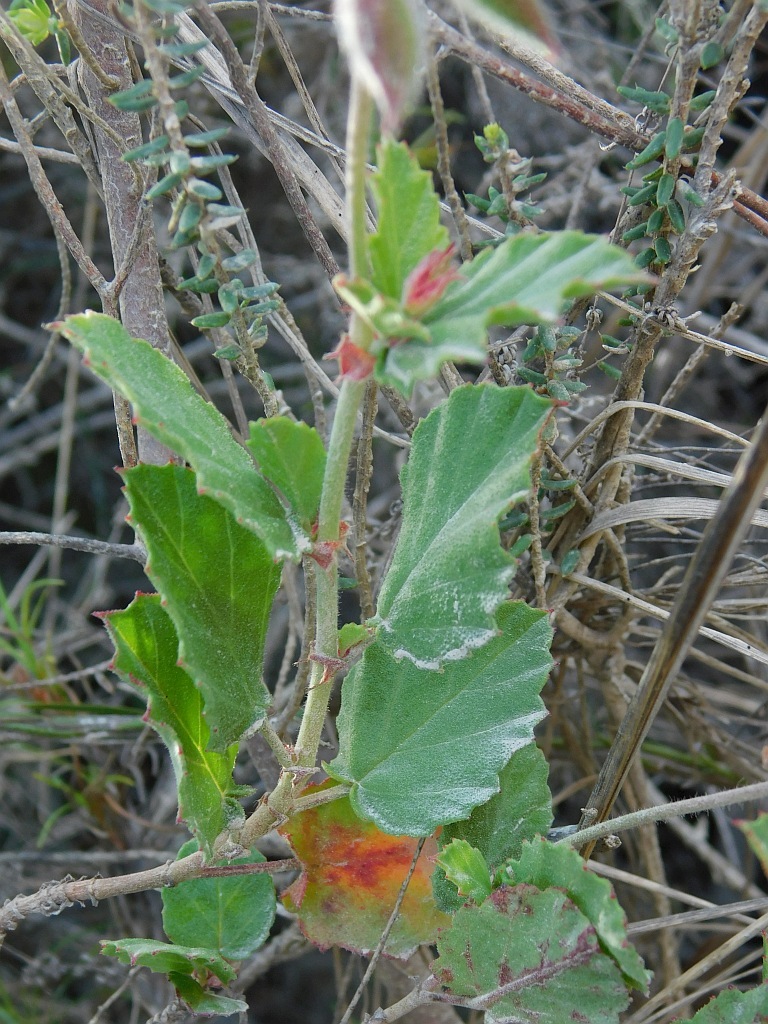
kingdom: Plantae
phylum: Tracheophyta
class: Magnoliopsida
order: Geraniales
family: Geraniaceae
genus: Pelargonium
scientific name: Pelargonium betulinum
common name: Birch-leaf pelargonium
